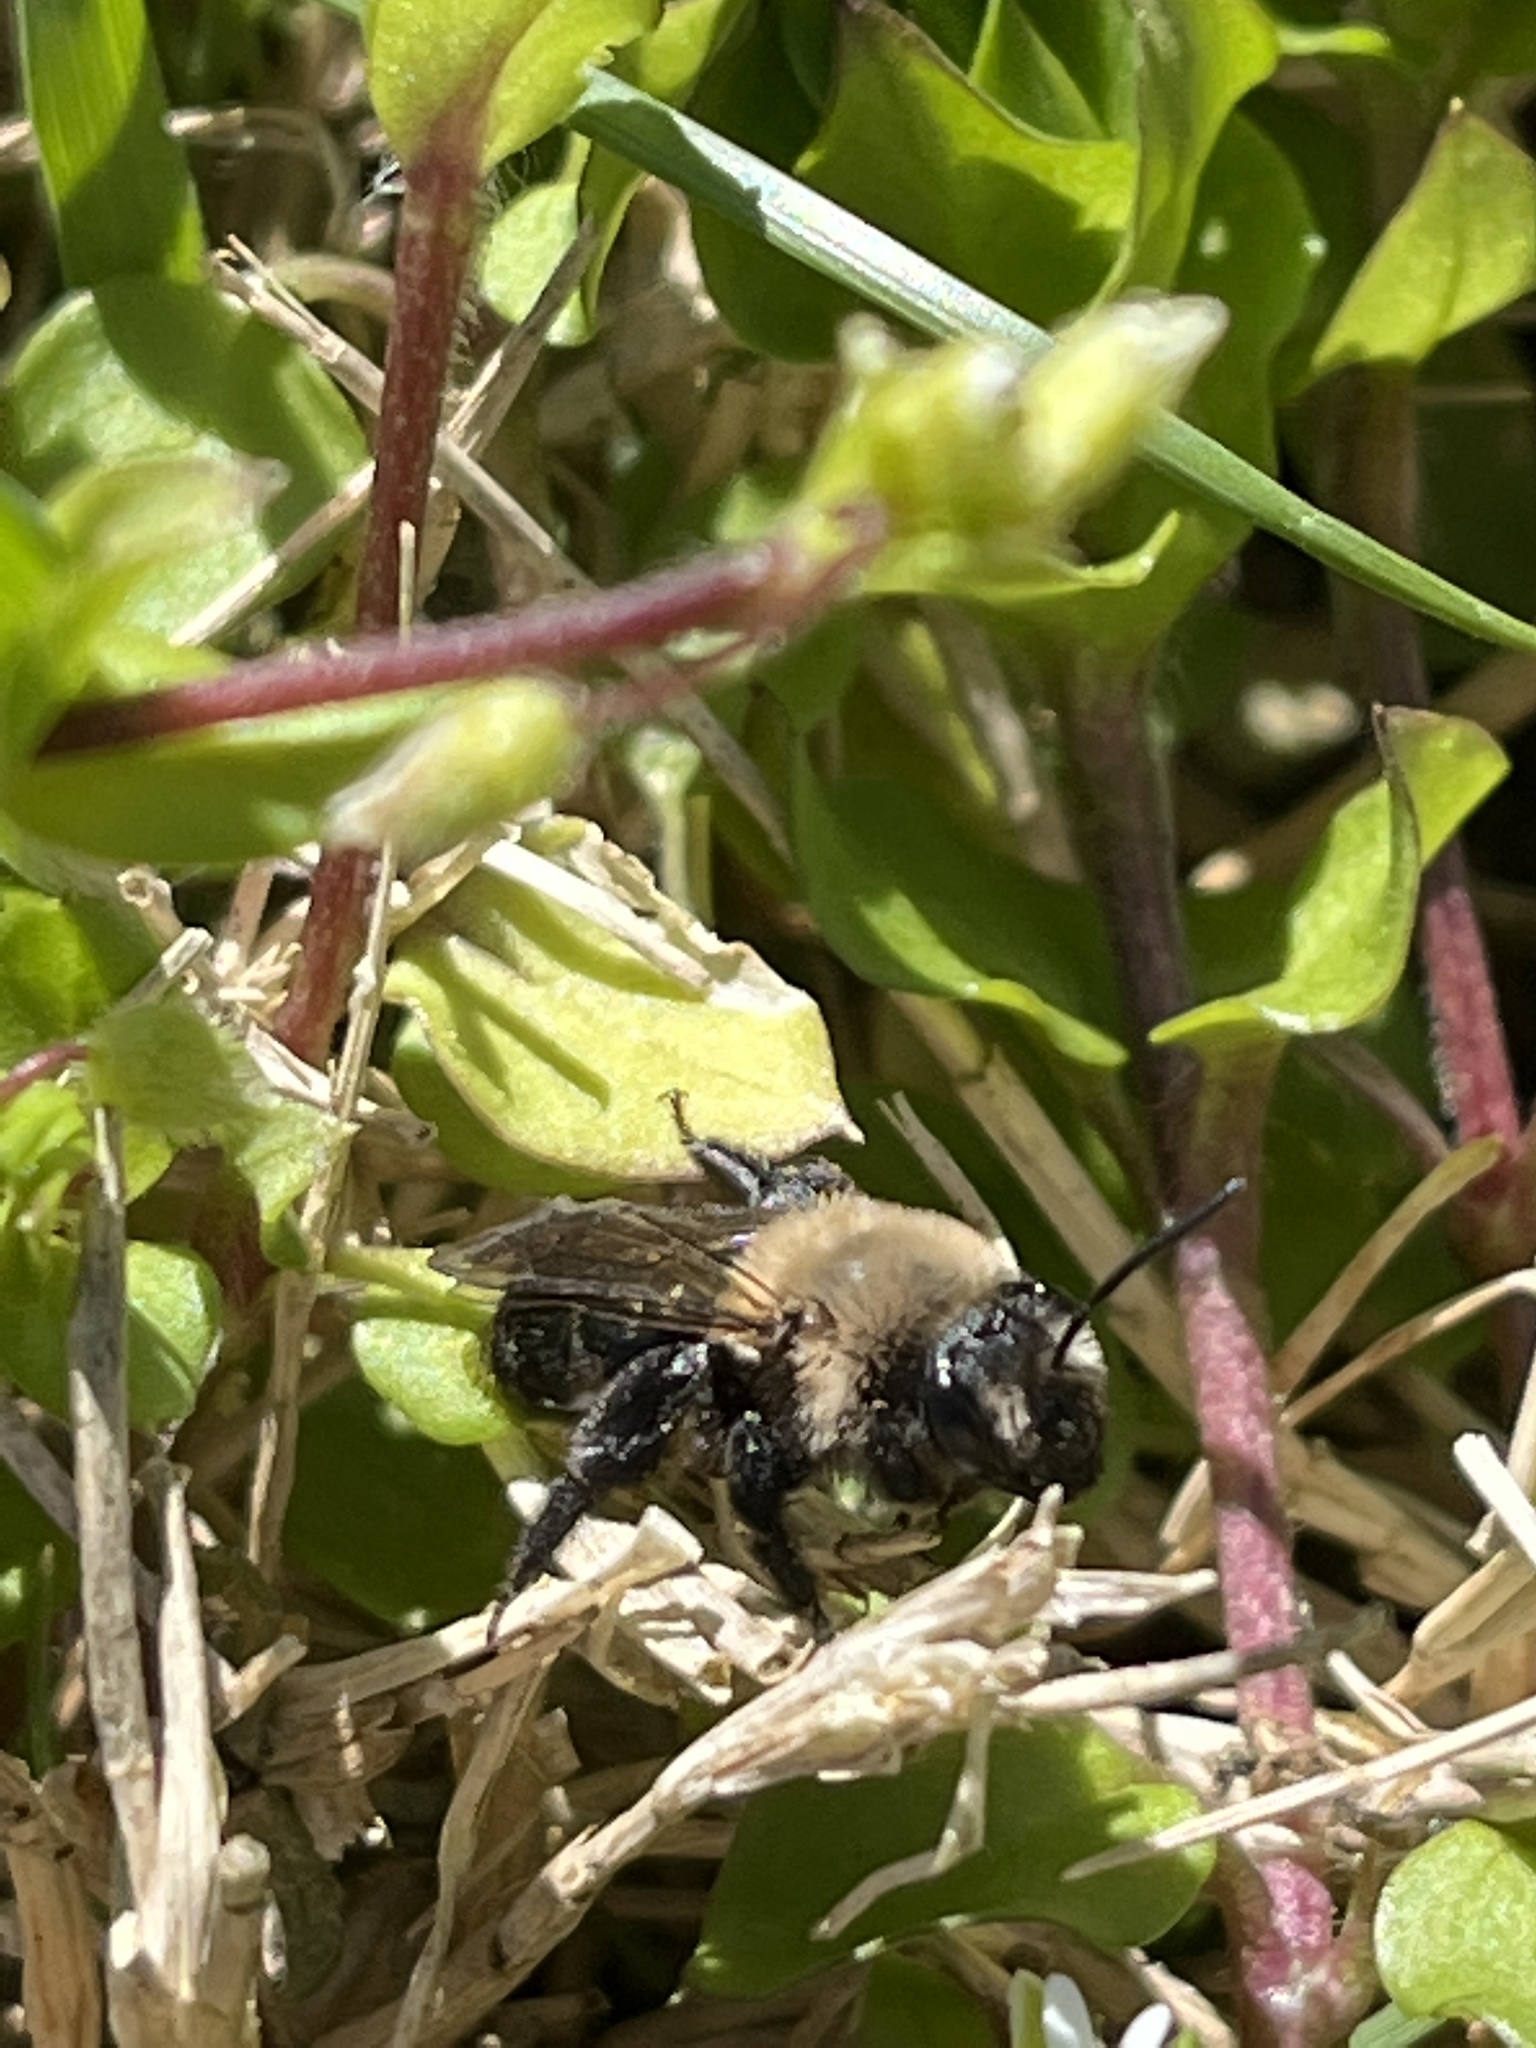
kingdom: Animalia
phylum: Arthropoda
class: Insecta
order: Hymenoptera
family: Andrenidae
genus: Andrena
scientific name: Andrena carlini
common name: Carlin's mining bee
